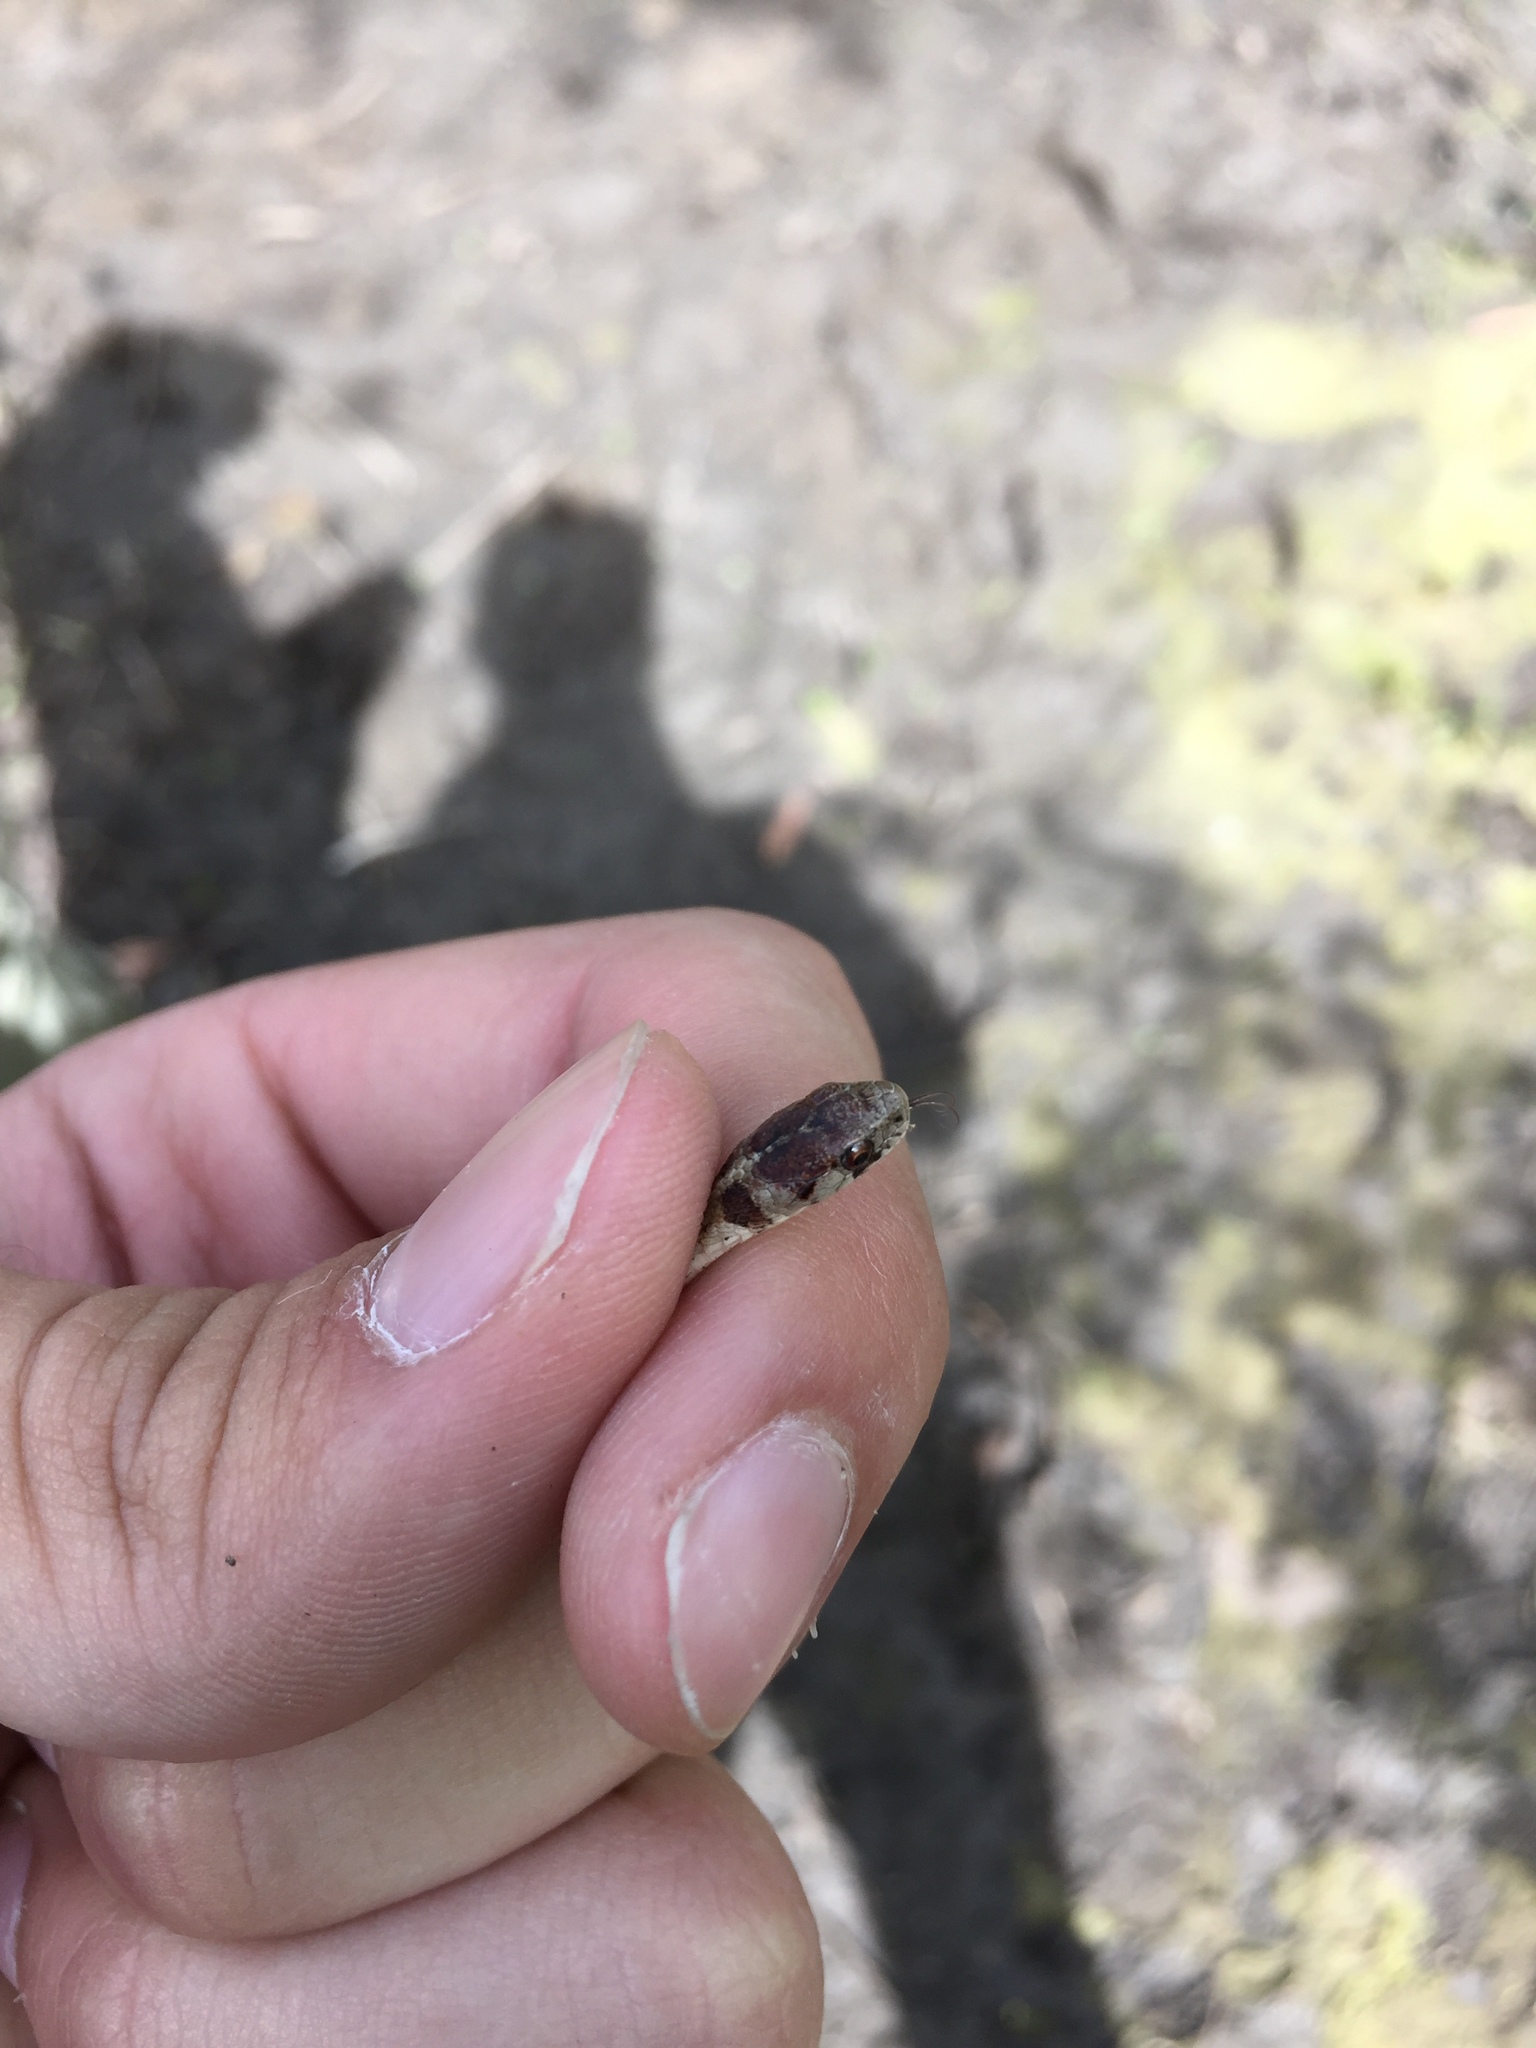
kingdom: Animalia
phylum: Chordata
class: Squamata
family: Colubridae
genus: Storeria
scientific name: Storeria dekayi
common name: (dekay’s) brown snake
